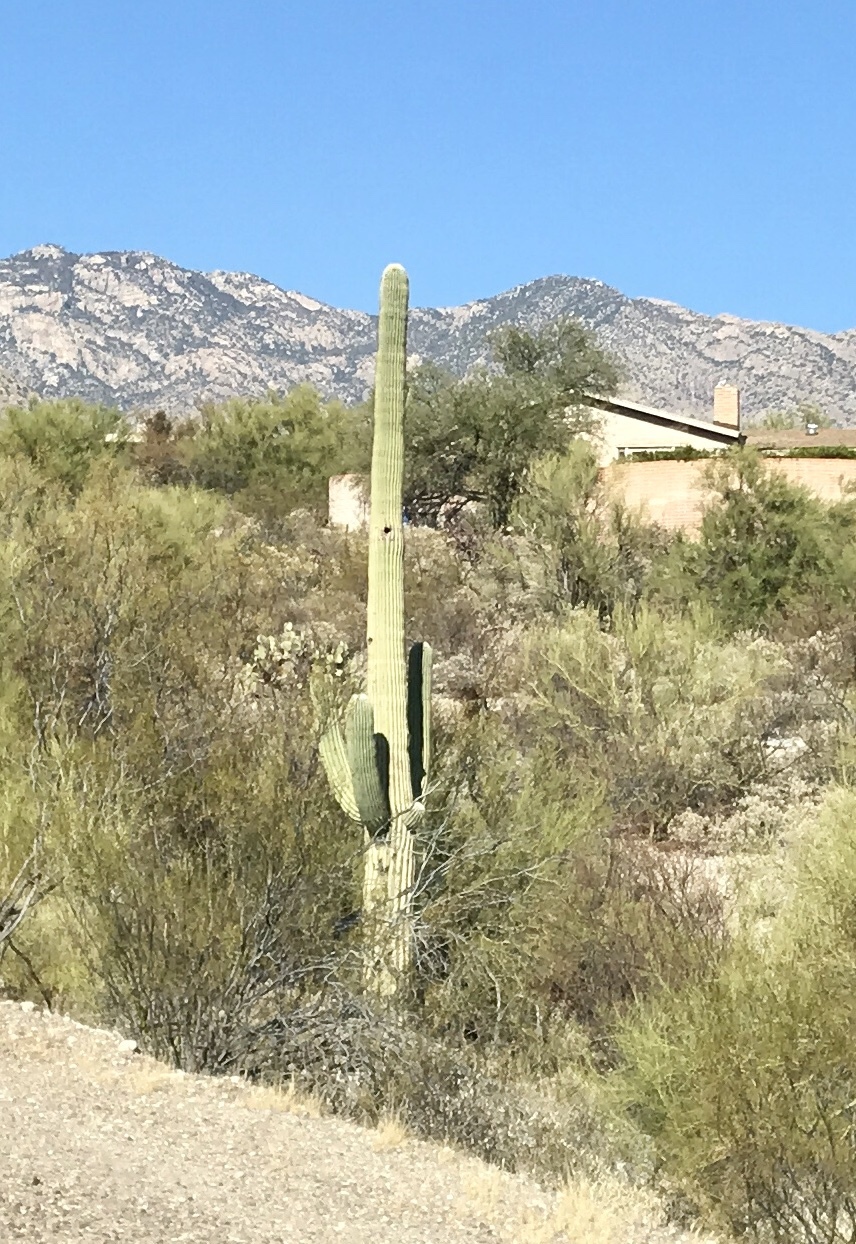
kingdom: Plantae
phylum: Tracheophyta
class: Magnoliopsida
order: Caryophyllales
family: Cactaceae
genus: Carnegiea
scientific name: Carnegiea gigantea
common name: Saguaro
